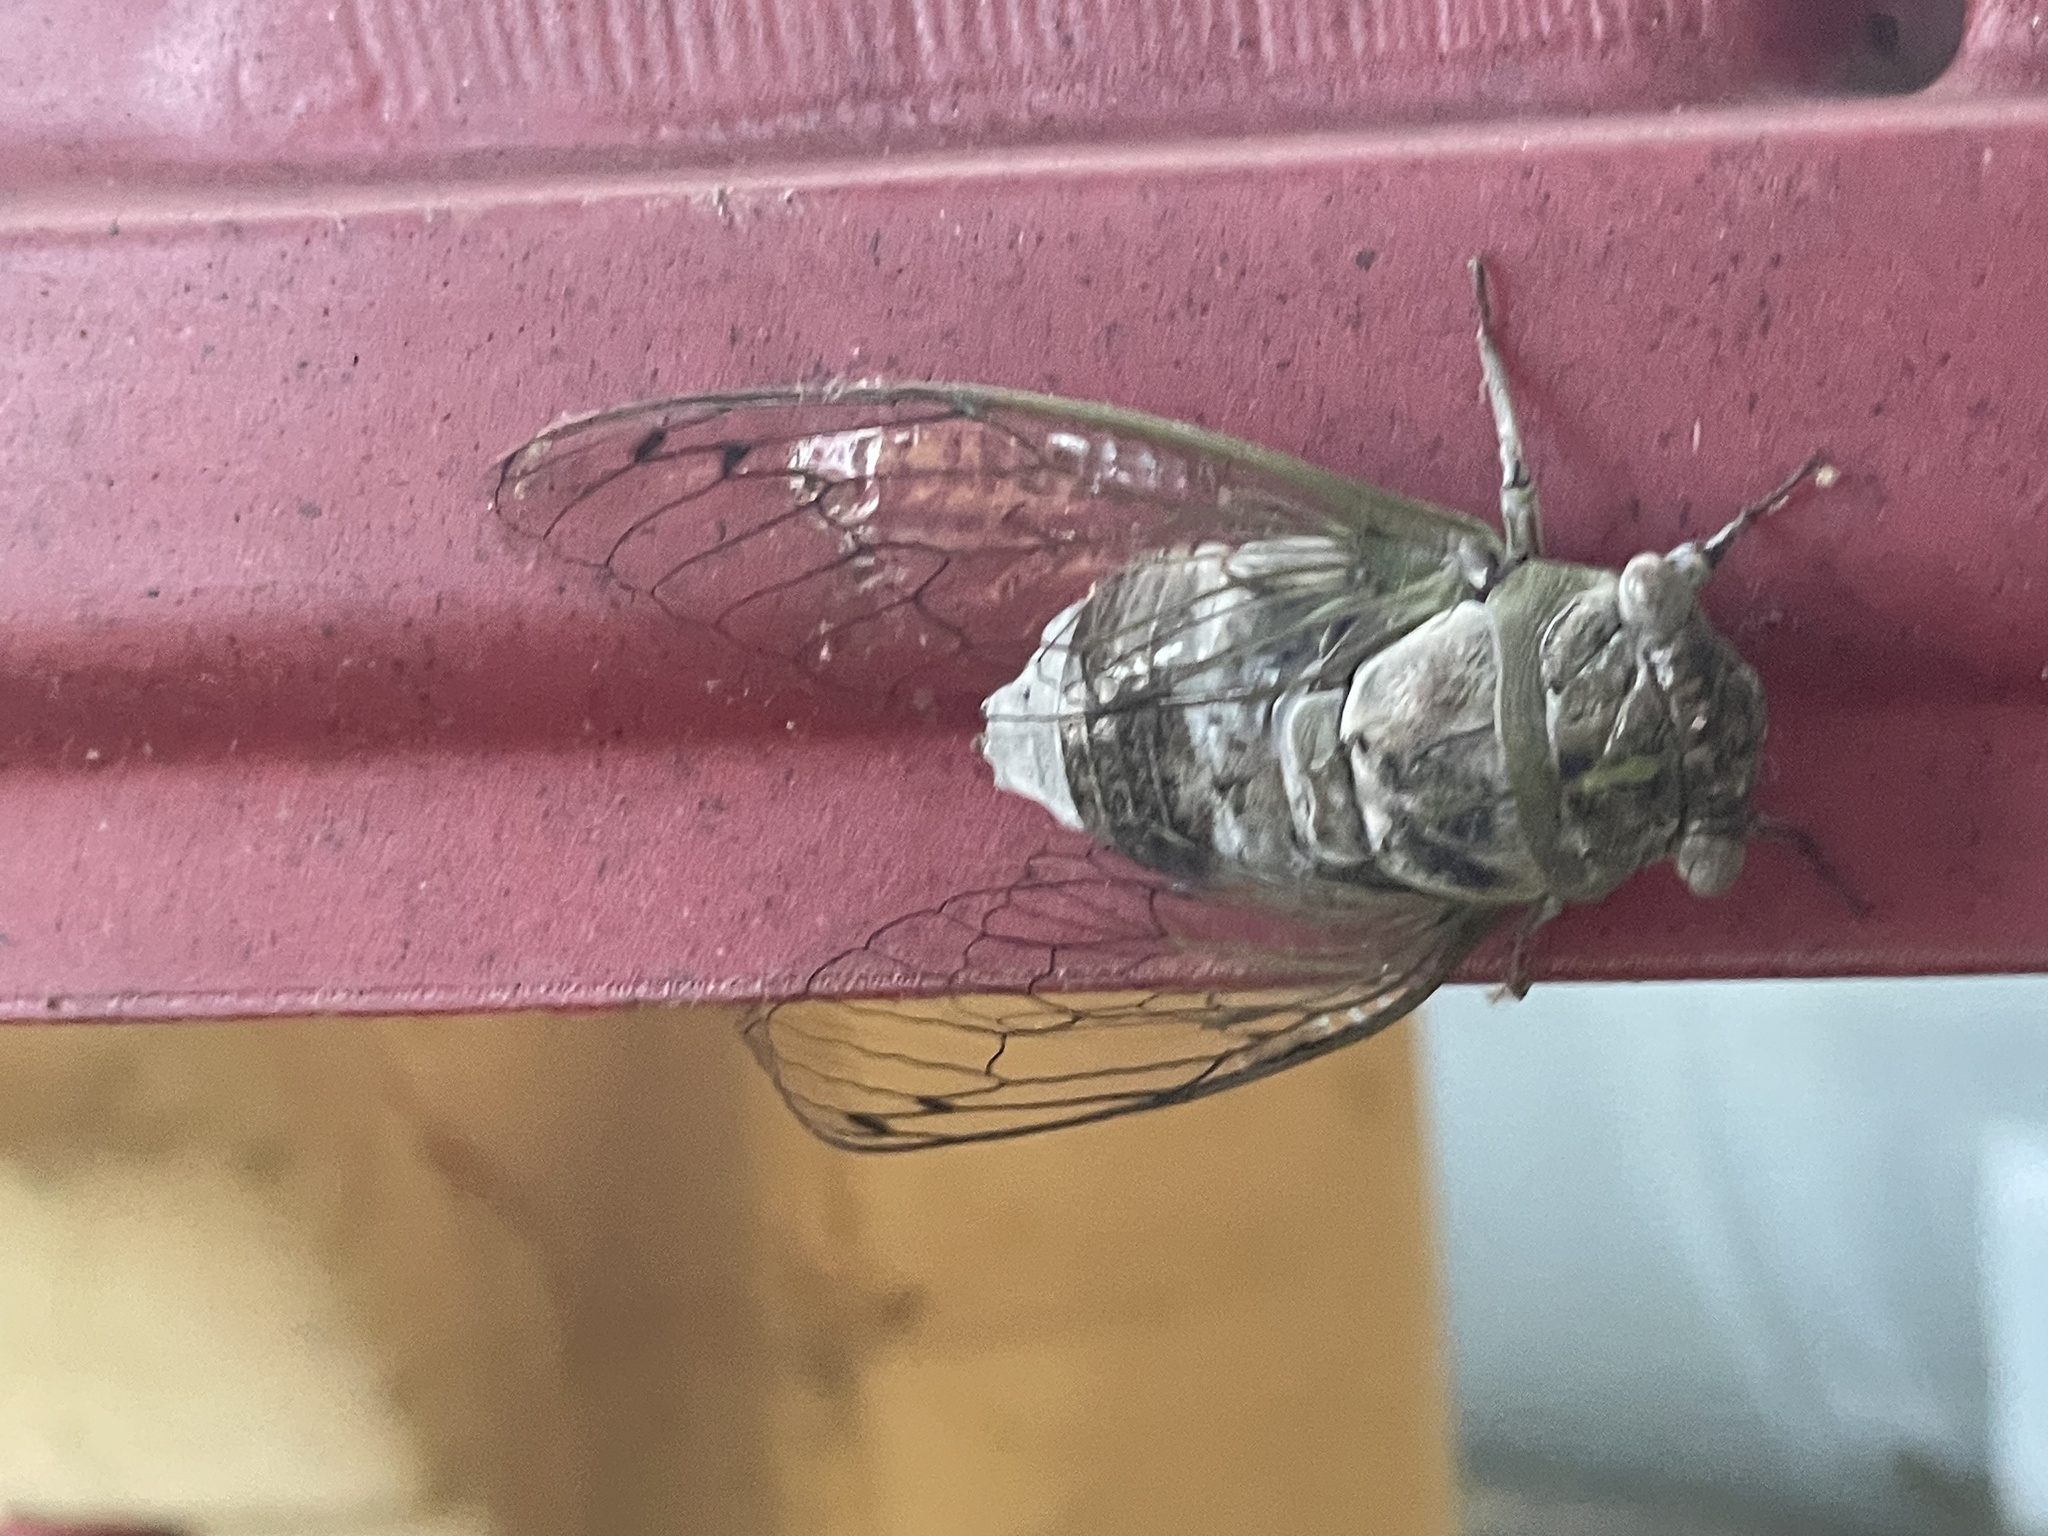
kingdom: Animalia
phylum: Arthropoda
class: Insecta
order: Hemiptera
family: Cicadidae
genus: Diceroprocta
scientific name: Diceroprocta grossa
